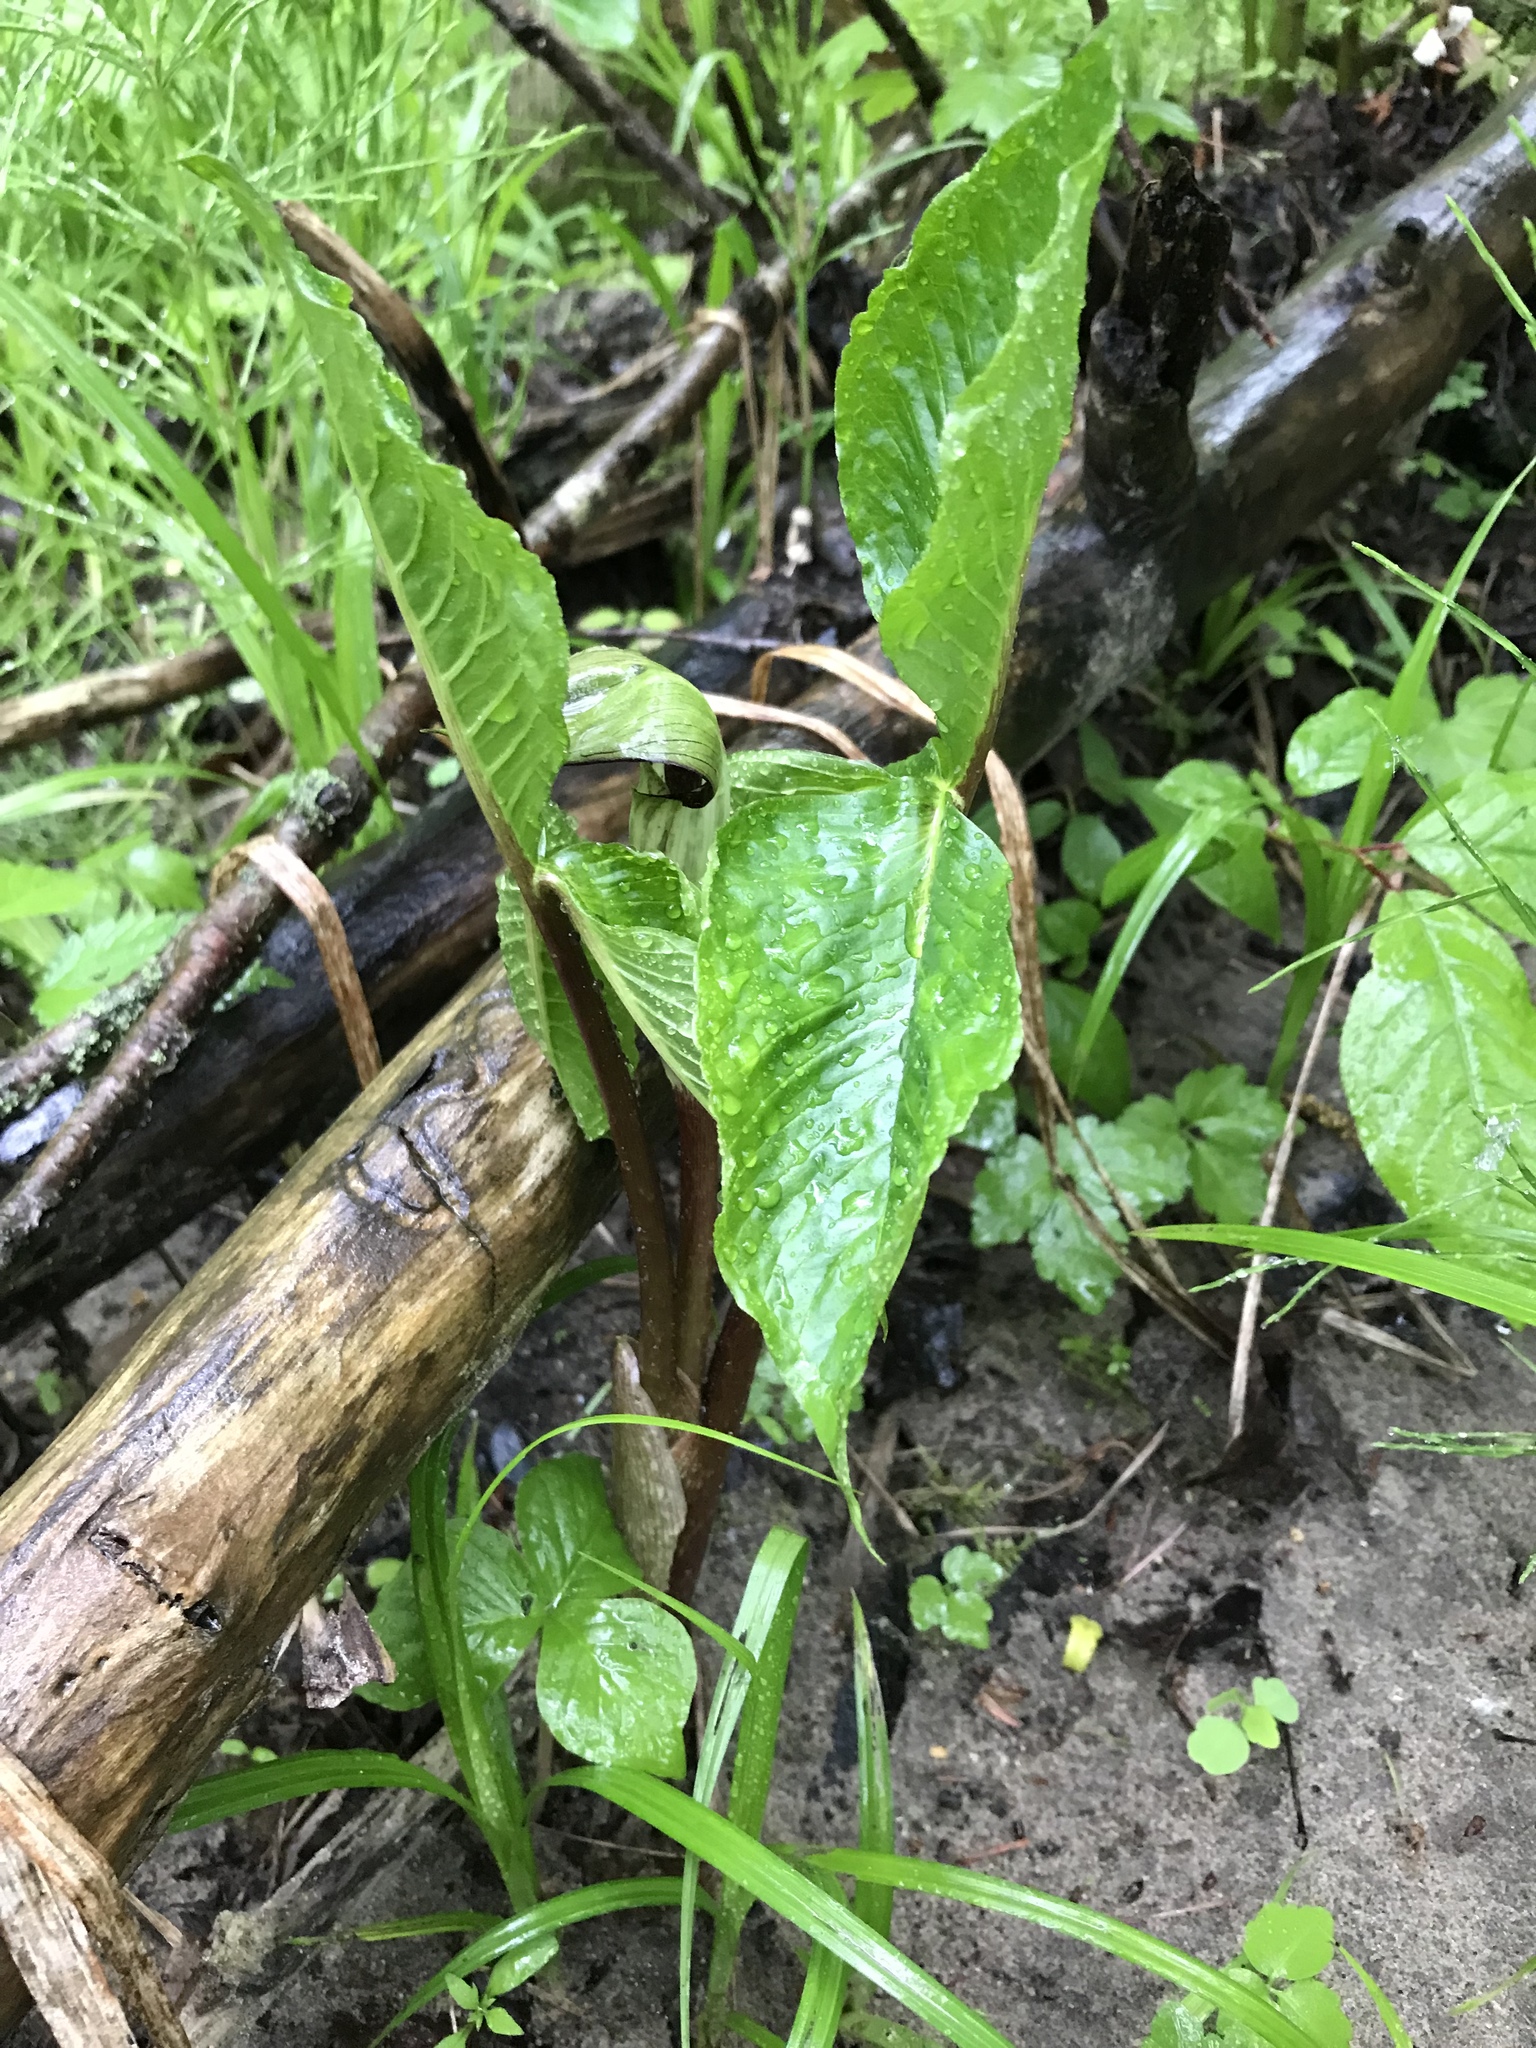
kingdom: Plantae
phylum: Tracheophyta
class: Liliopsida
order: Alismatales
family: Araceae
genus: Arisaema
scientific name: Arisaema triphyllum
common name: Jack-in-the-pulpit
